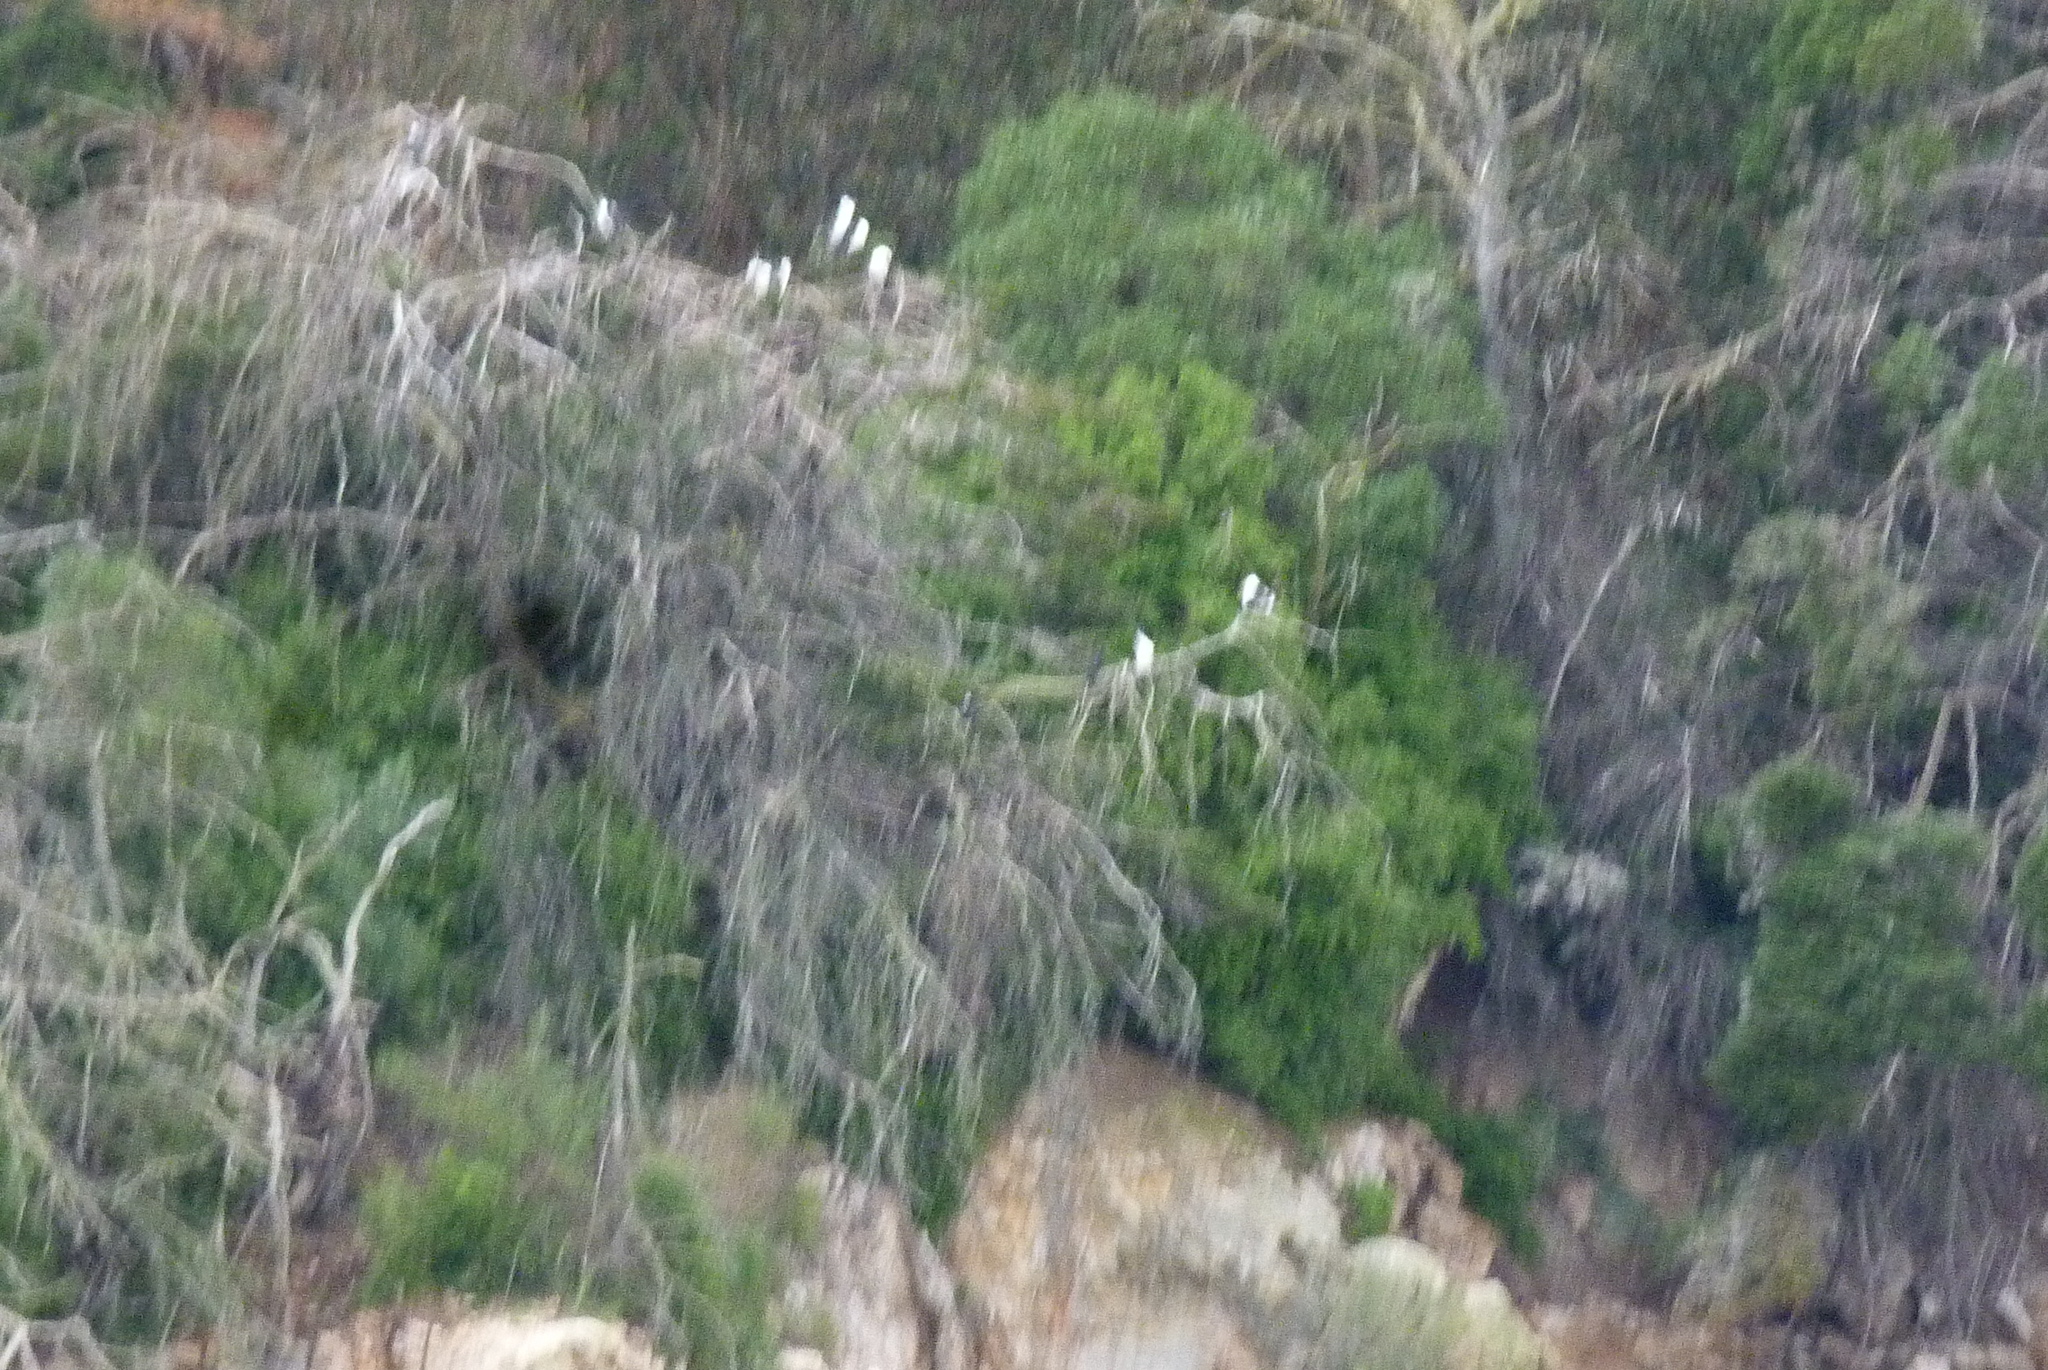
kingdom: Animalia
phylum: Chordata
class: Aves
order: Suliformes
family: Phalacrocoracidae
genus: Phalacrocorax
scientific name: Phalacrocorax varius
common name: Pied cormorant
